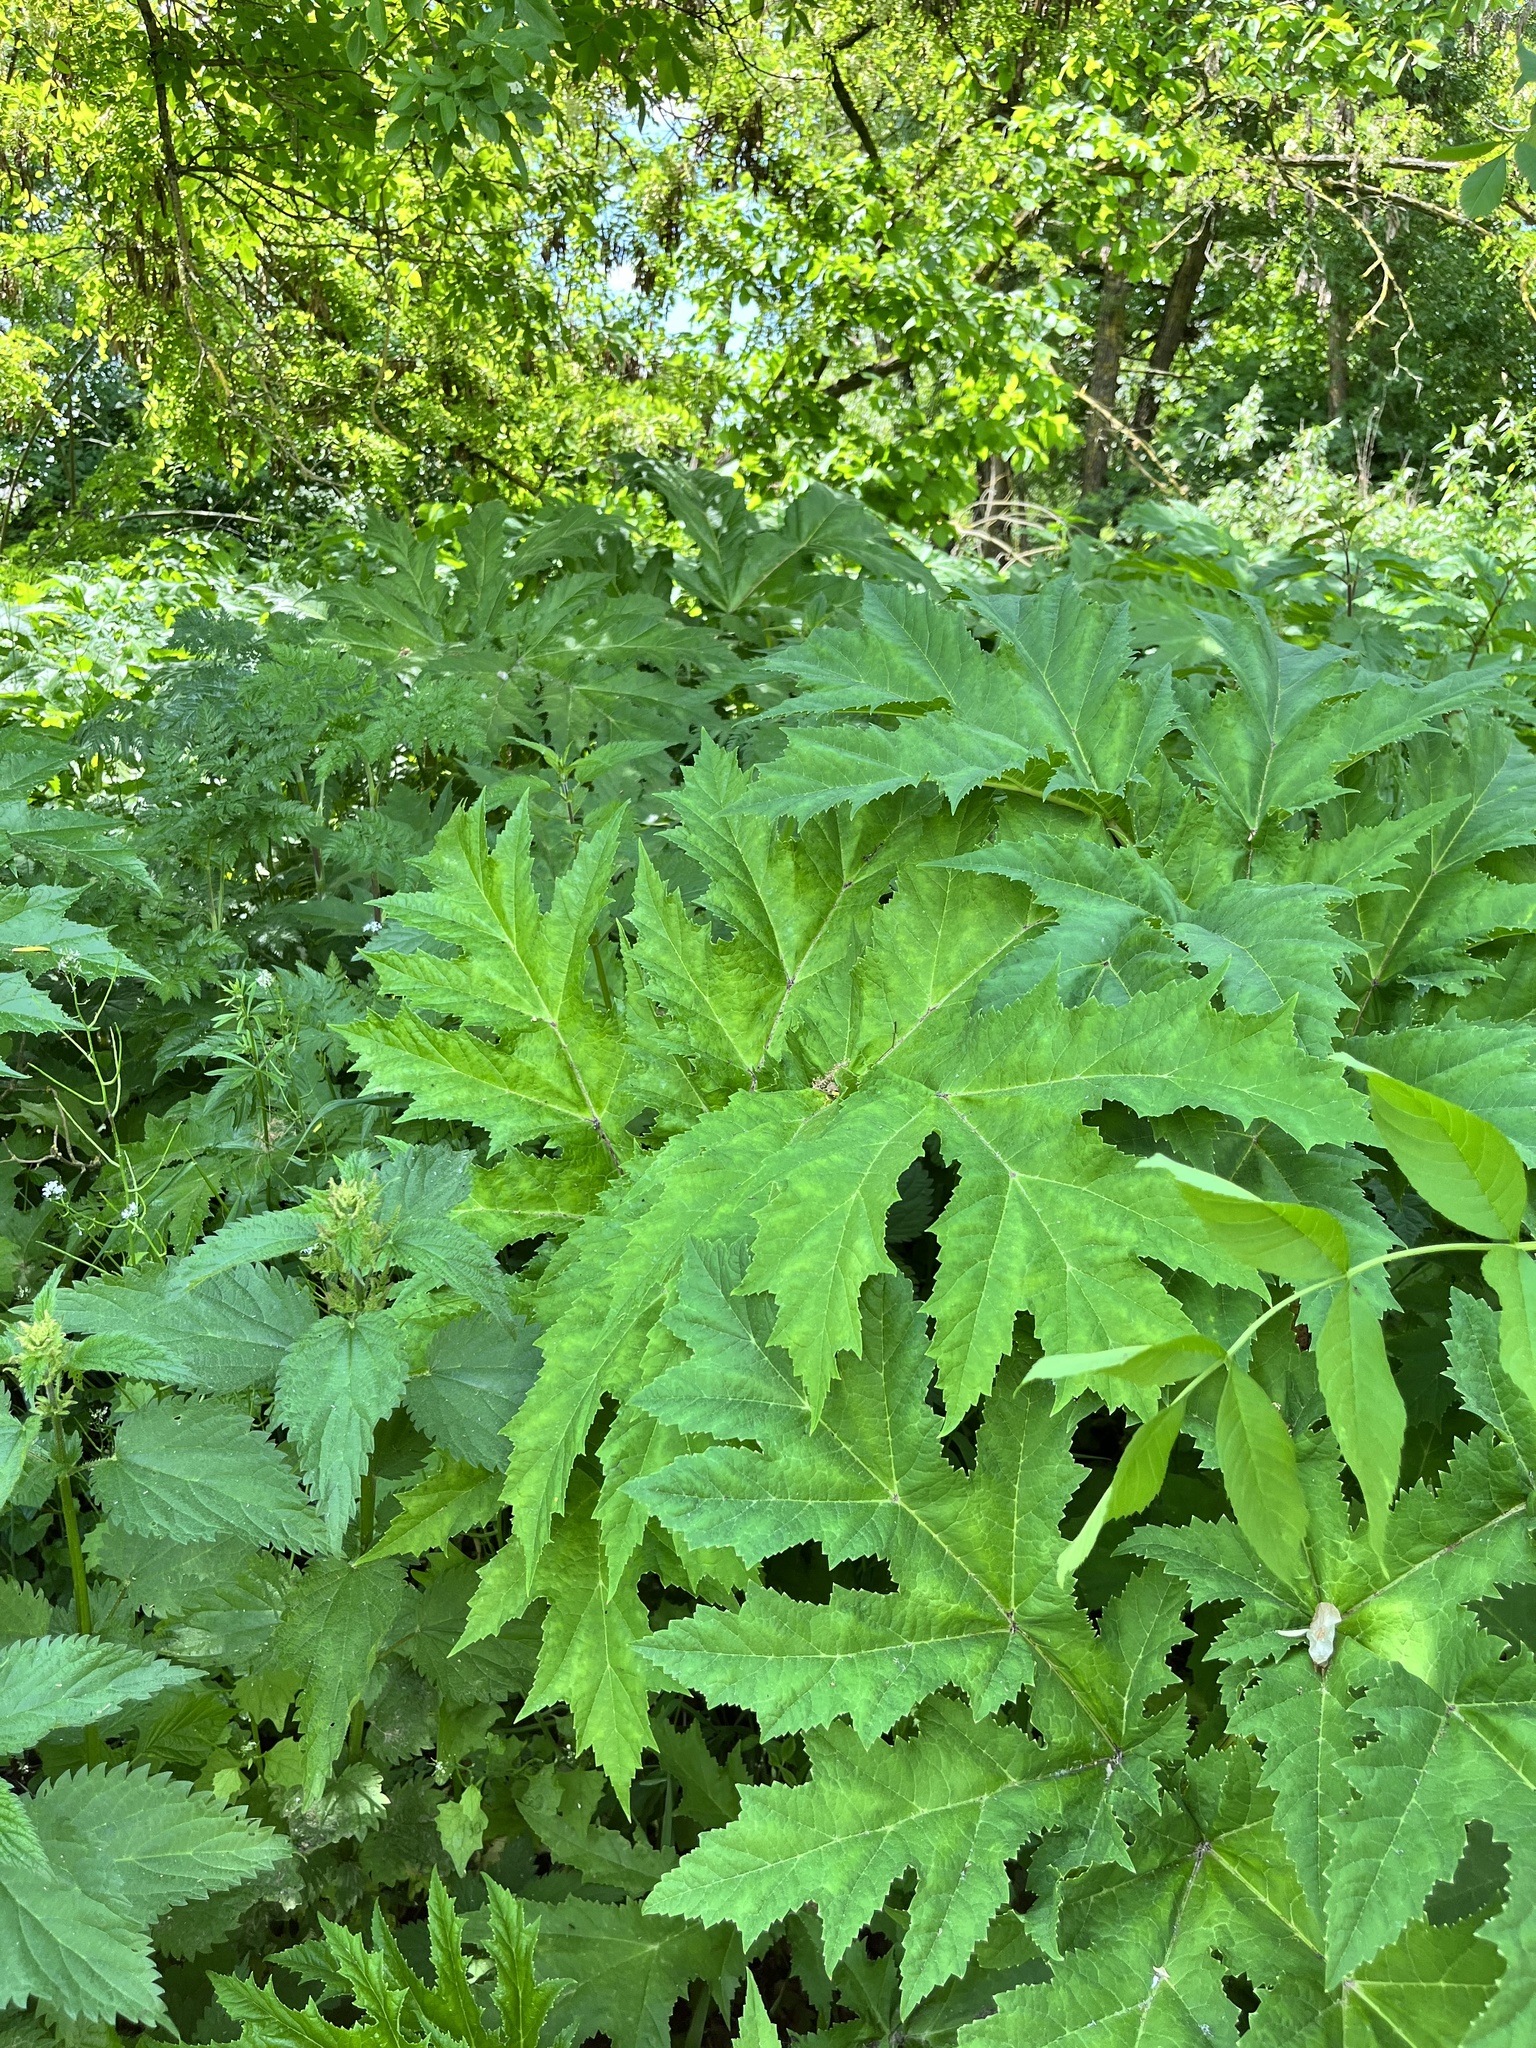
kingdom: Plantae
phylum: Tracheophyta
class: Magnoliopsida
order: Apiales
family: Apiaceae
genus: Heracleum
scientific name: Heracleum mantegazzianum
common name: Giant hogweed
